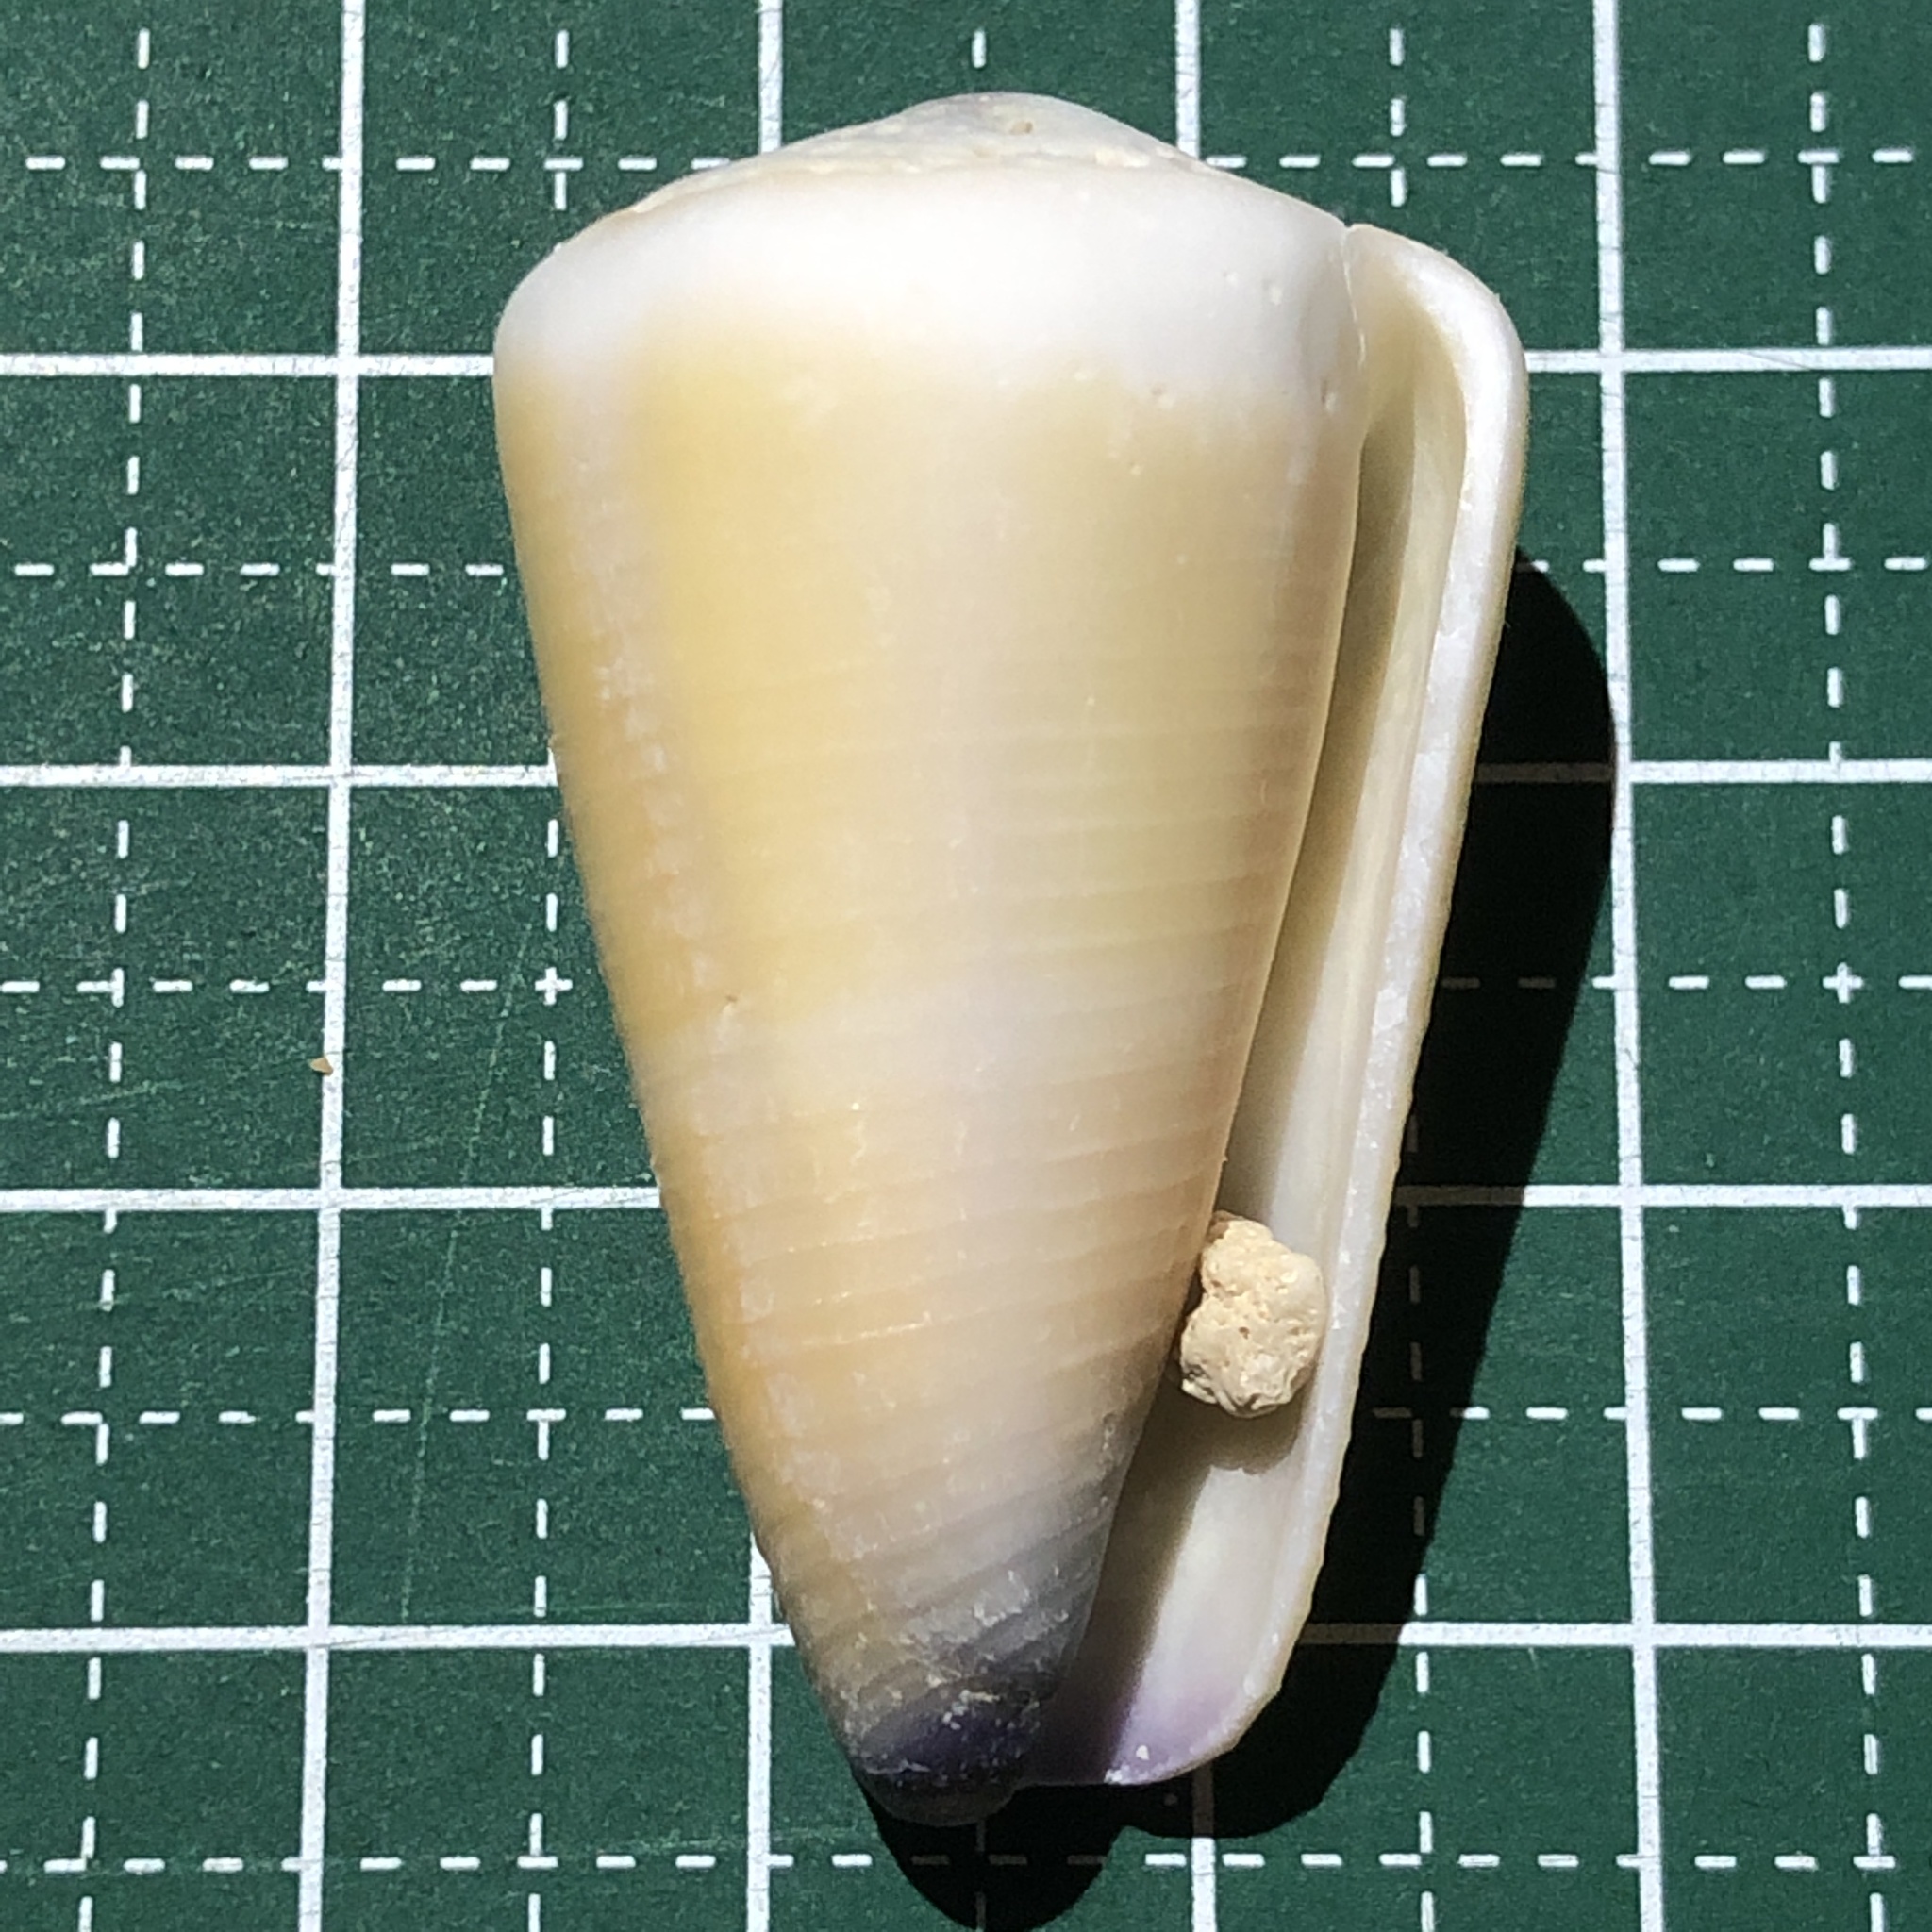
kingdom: Animalia
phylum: Mollusca
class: Gastropoda
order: Neogastropoda
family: Conidae
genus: Conus
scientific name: Conus flavidus
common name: Golden-yellow cone
